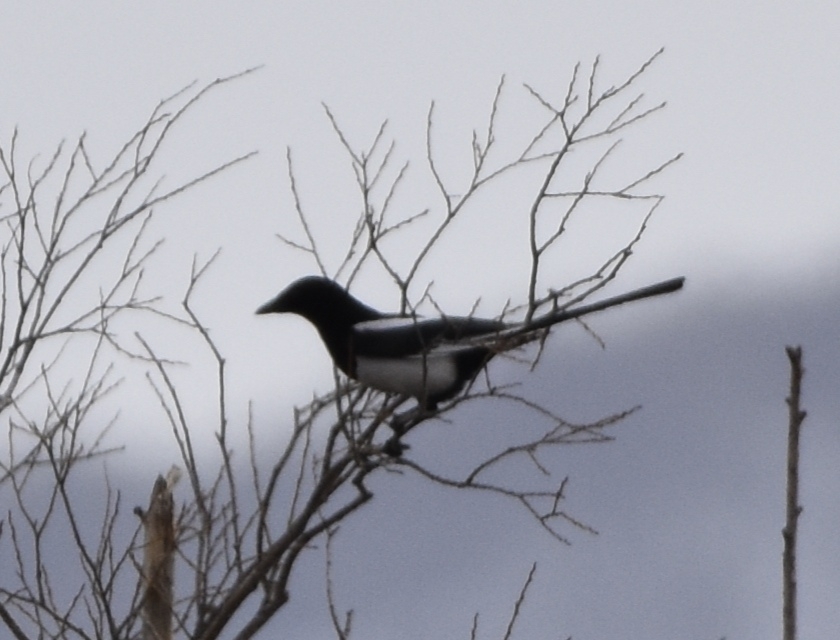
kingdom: Animalia
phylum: Chordata
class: Aves
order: Passeriformes
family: Corvidae
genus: Pica
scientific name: Pica pica
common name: Eurasian magpie
